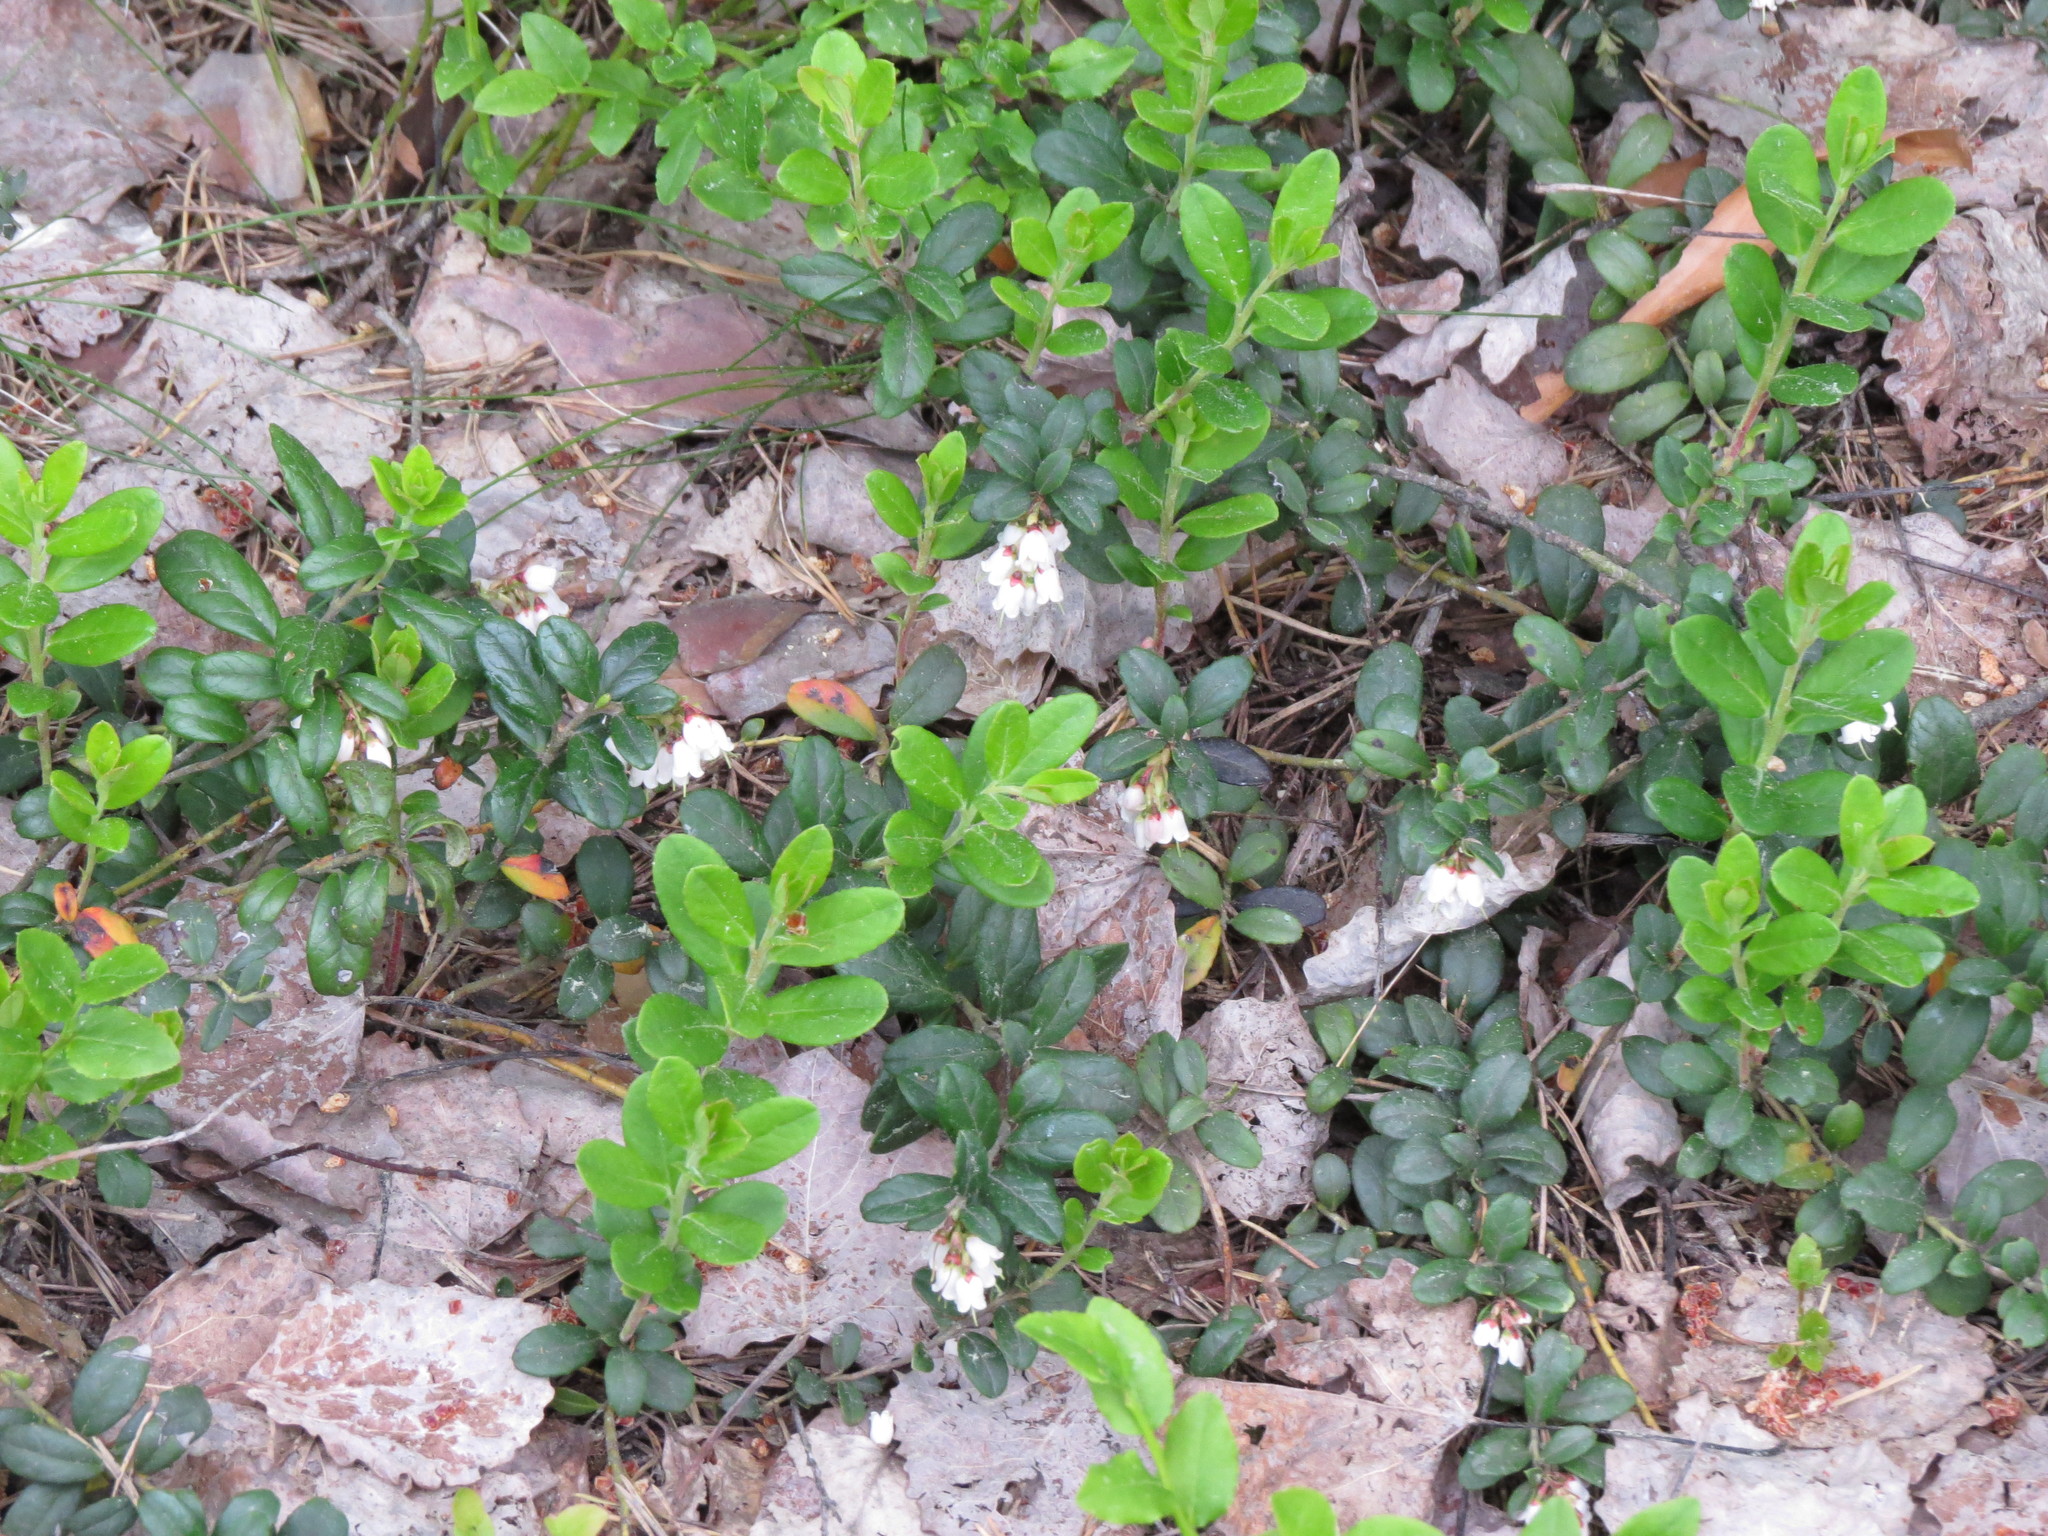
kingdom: Plantae
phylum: Tracheophyta
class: Magnoliopsida
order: Ericales
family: Ericaceae
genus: Vaccinium
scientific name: Vaccinium vitis-idaea
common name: Cowberry
